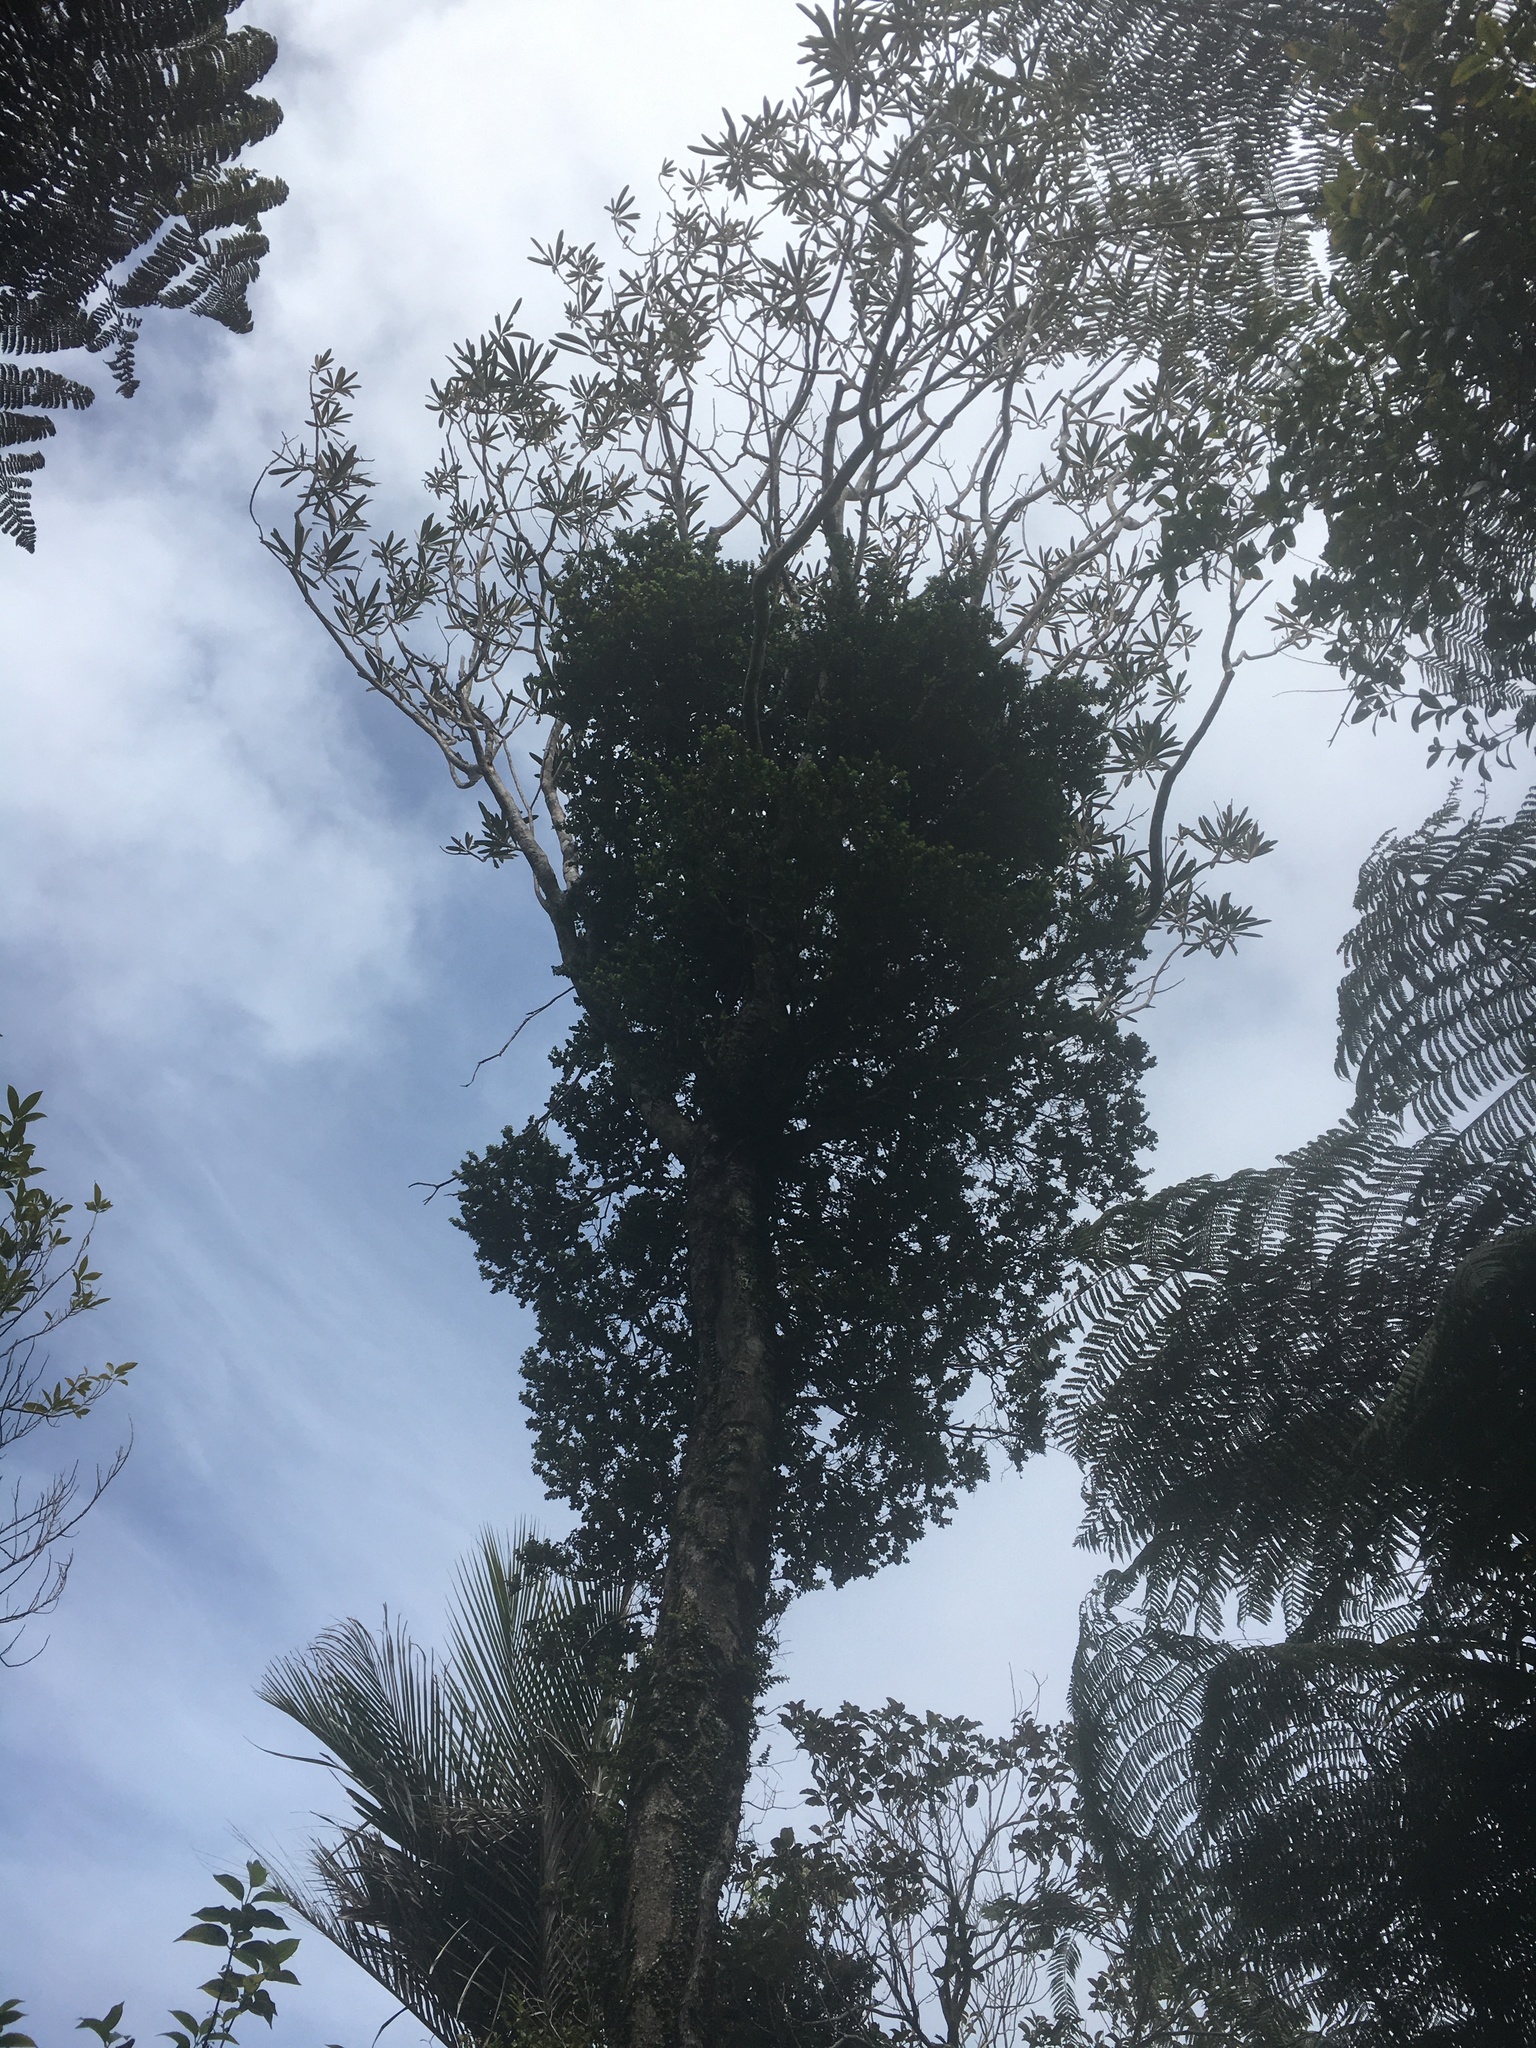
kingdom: Plantae
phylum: Tracheophyta
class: Magnoliopsida
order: Myrtales
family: Myrtaceae
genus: Metrosideros
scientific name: Metrosideros perforata
